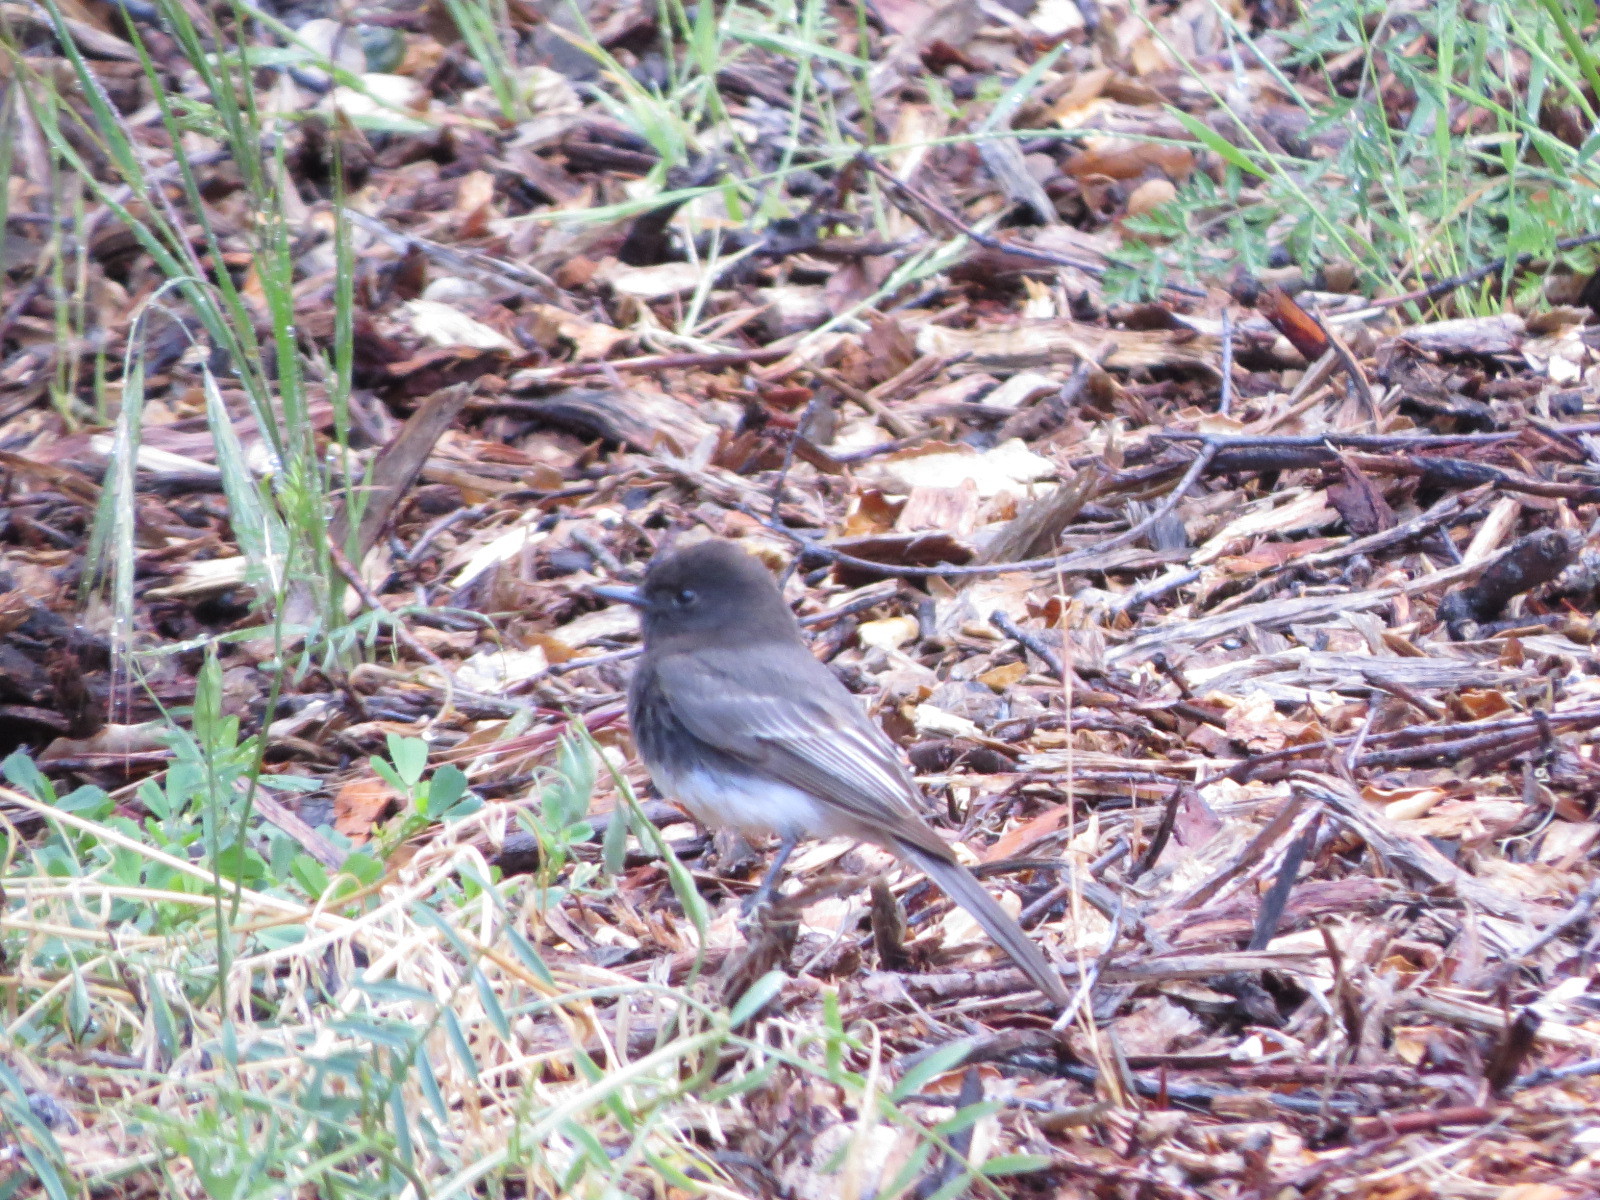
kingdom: Animalia
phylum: Chordata
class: Aves
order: Passeriformes
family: Tyrannidae
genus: Sayornis
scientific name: Sayornis nigricans
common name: Black phoebe
